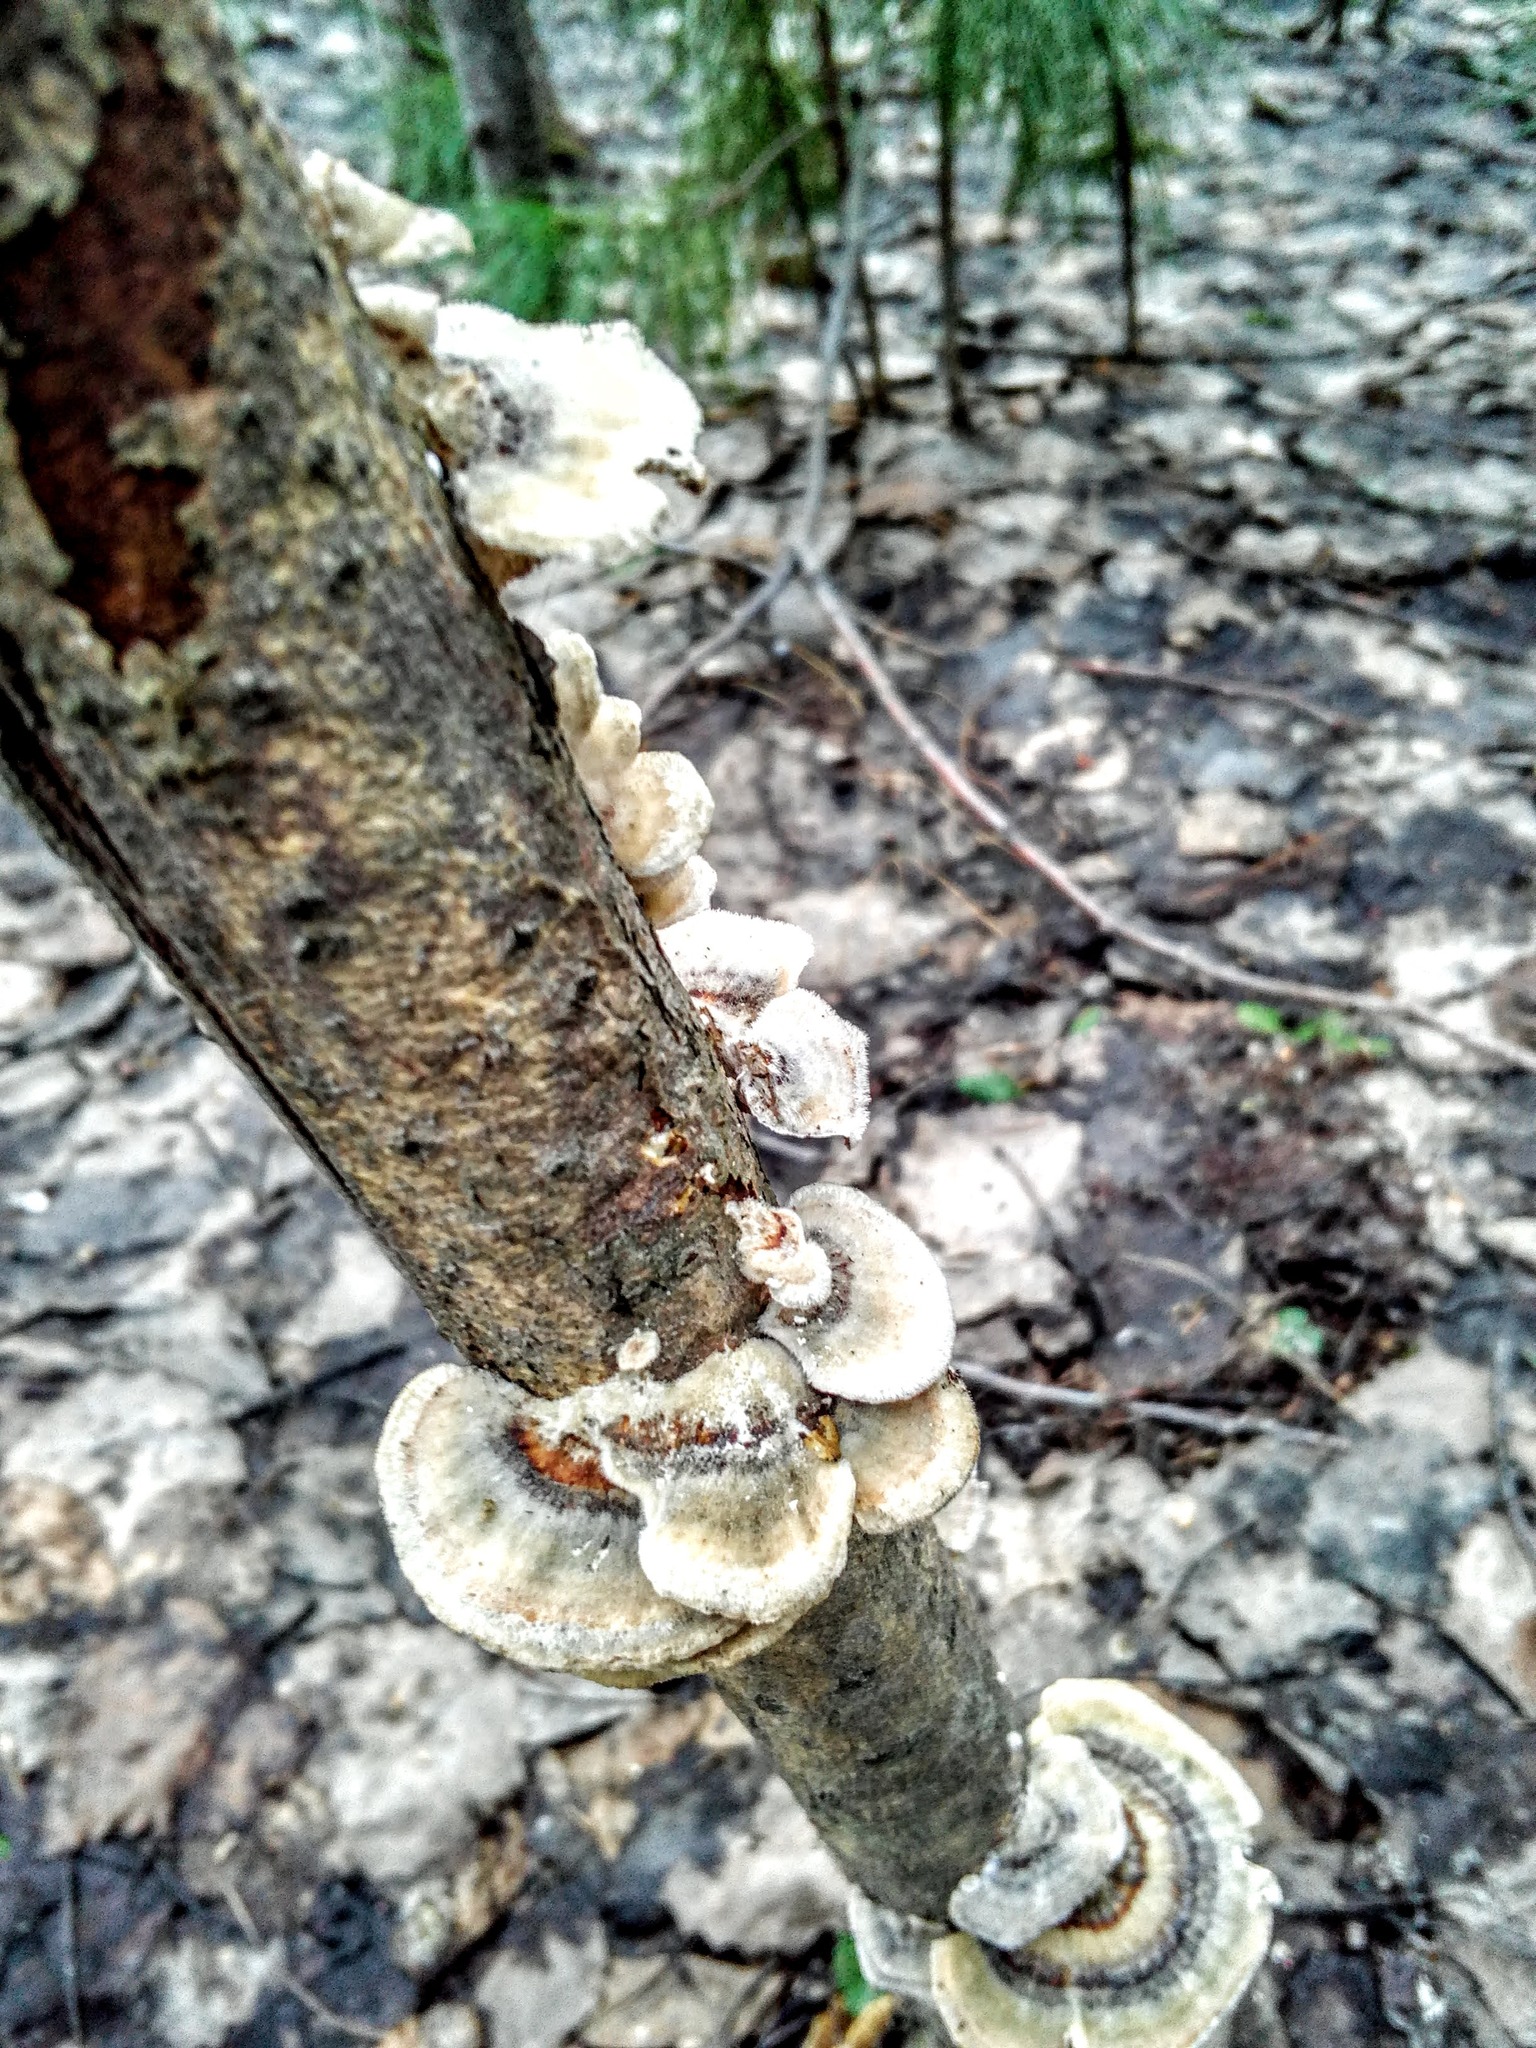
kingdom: Fungi
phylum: Basidiomycota
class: Agaricomycetes
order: Polyporales
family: Polyporaceae
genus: Trametes
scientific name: Trametes versicolor
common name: Turkeytail
